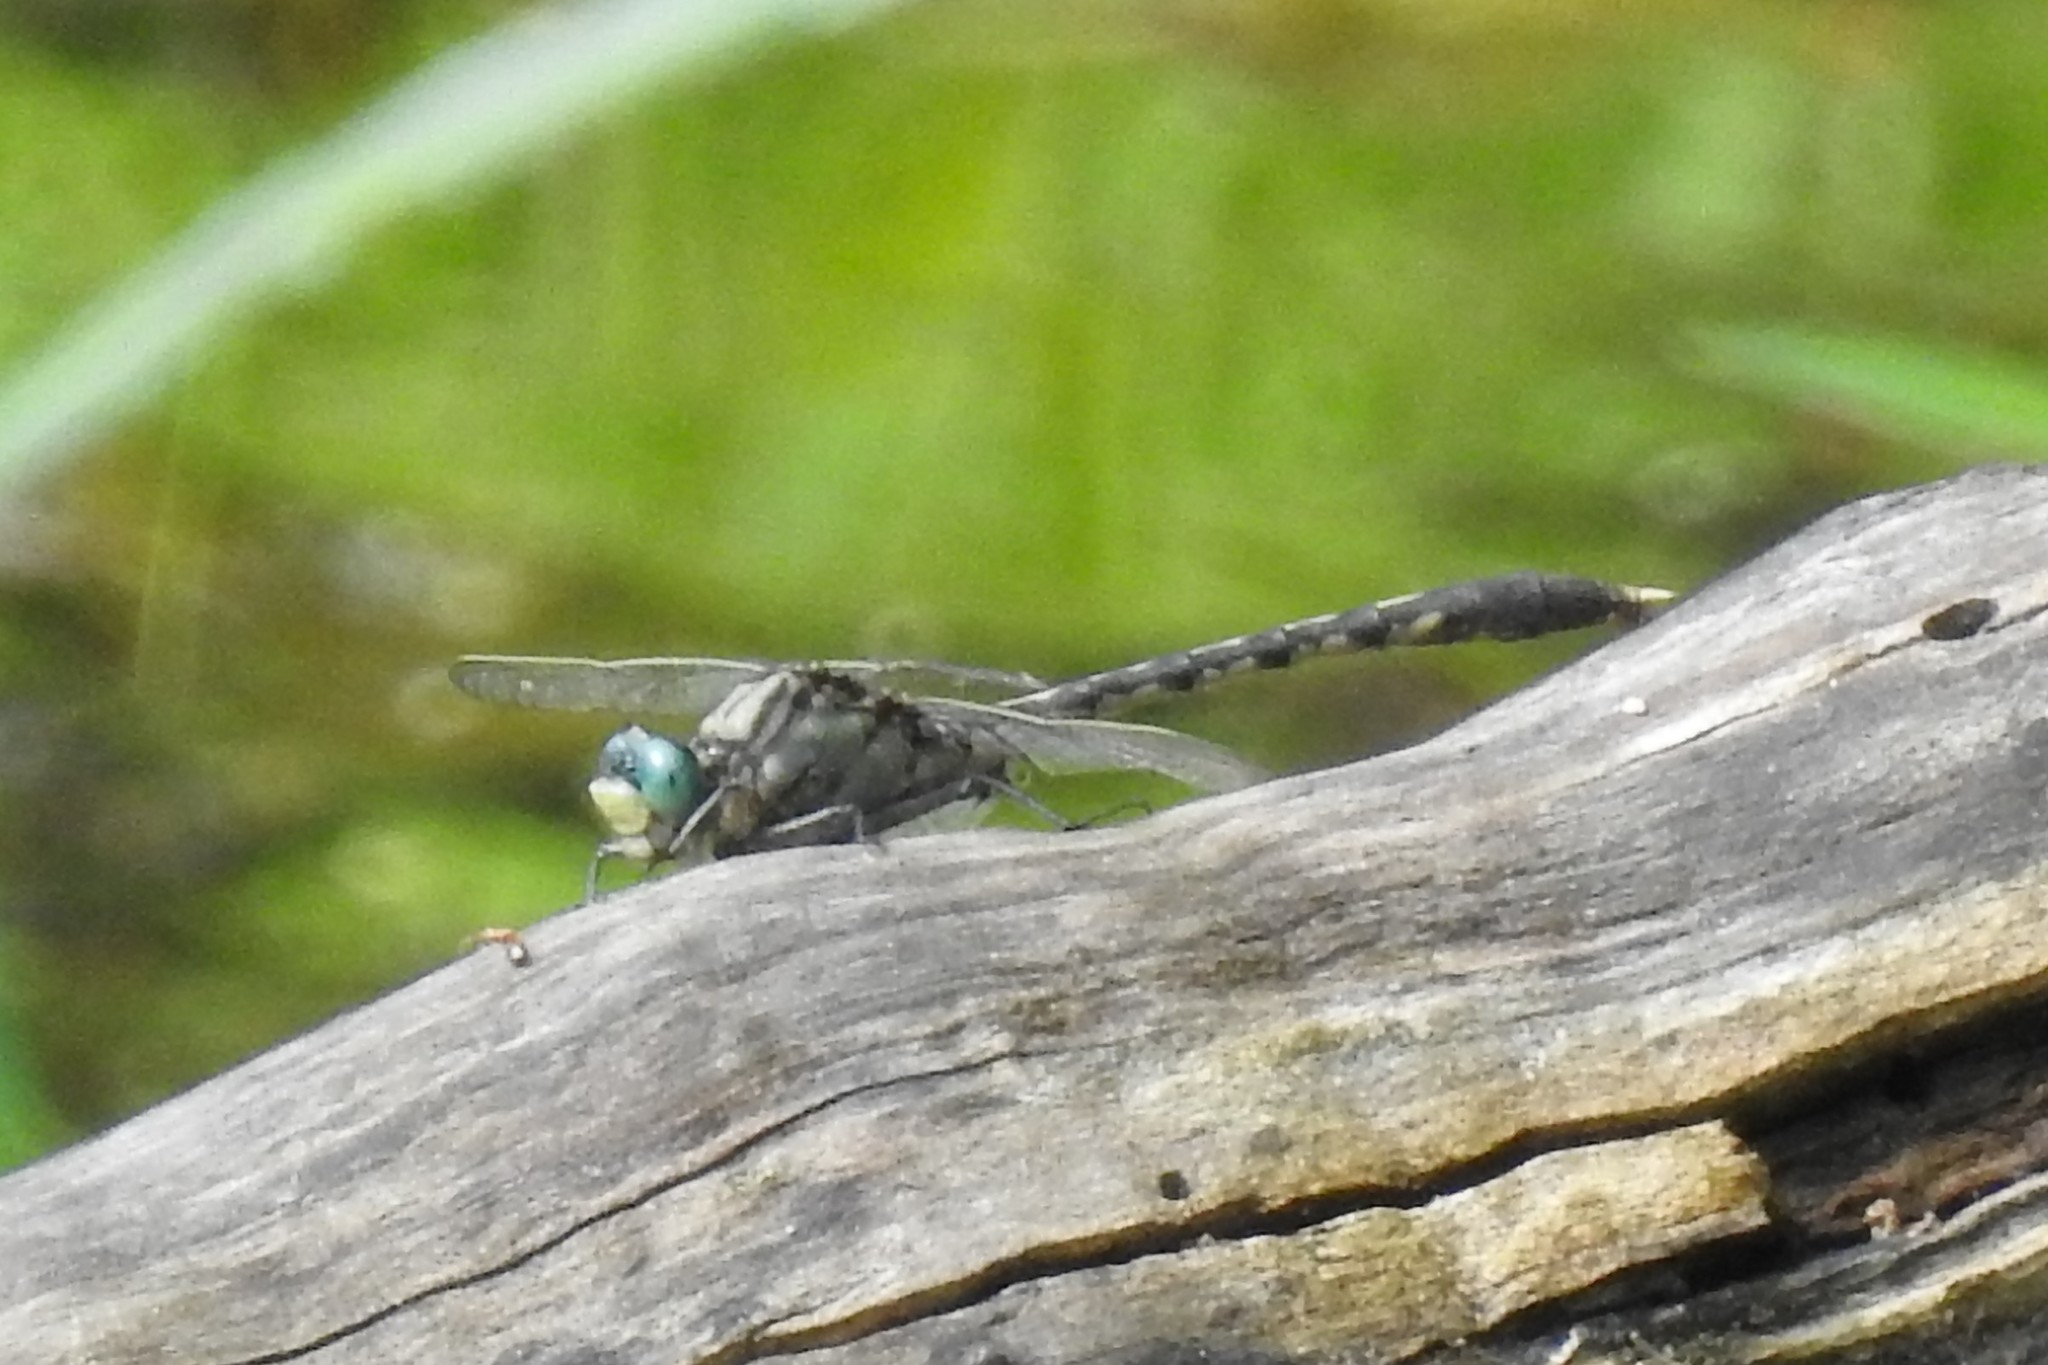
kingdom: Animalia
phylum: Arthropoda
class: Insecta
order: Odonata
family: Gomphidae
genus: Arigomphus
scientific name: Arigomphus villosipes
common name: Unicorn clubtail
